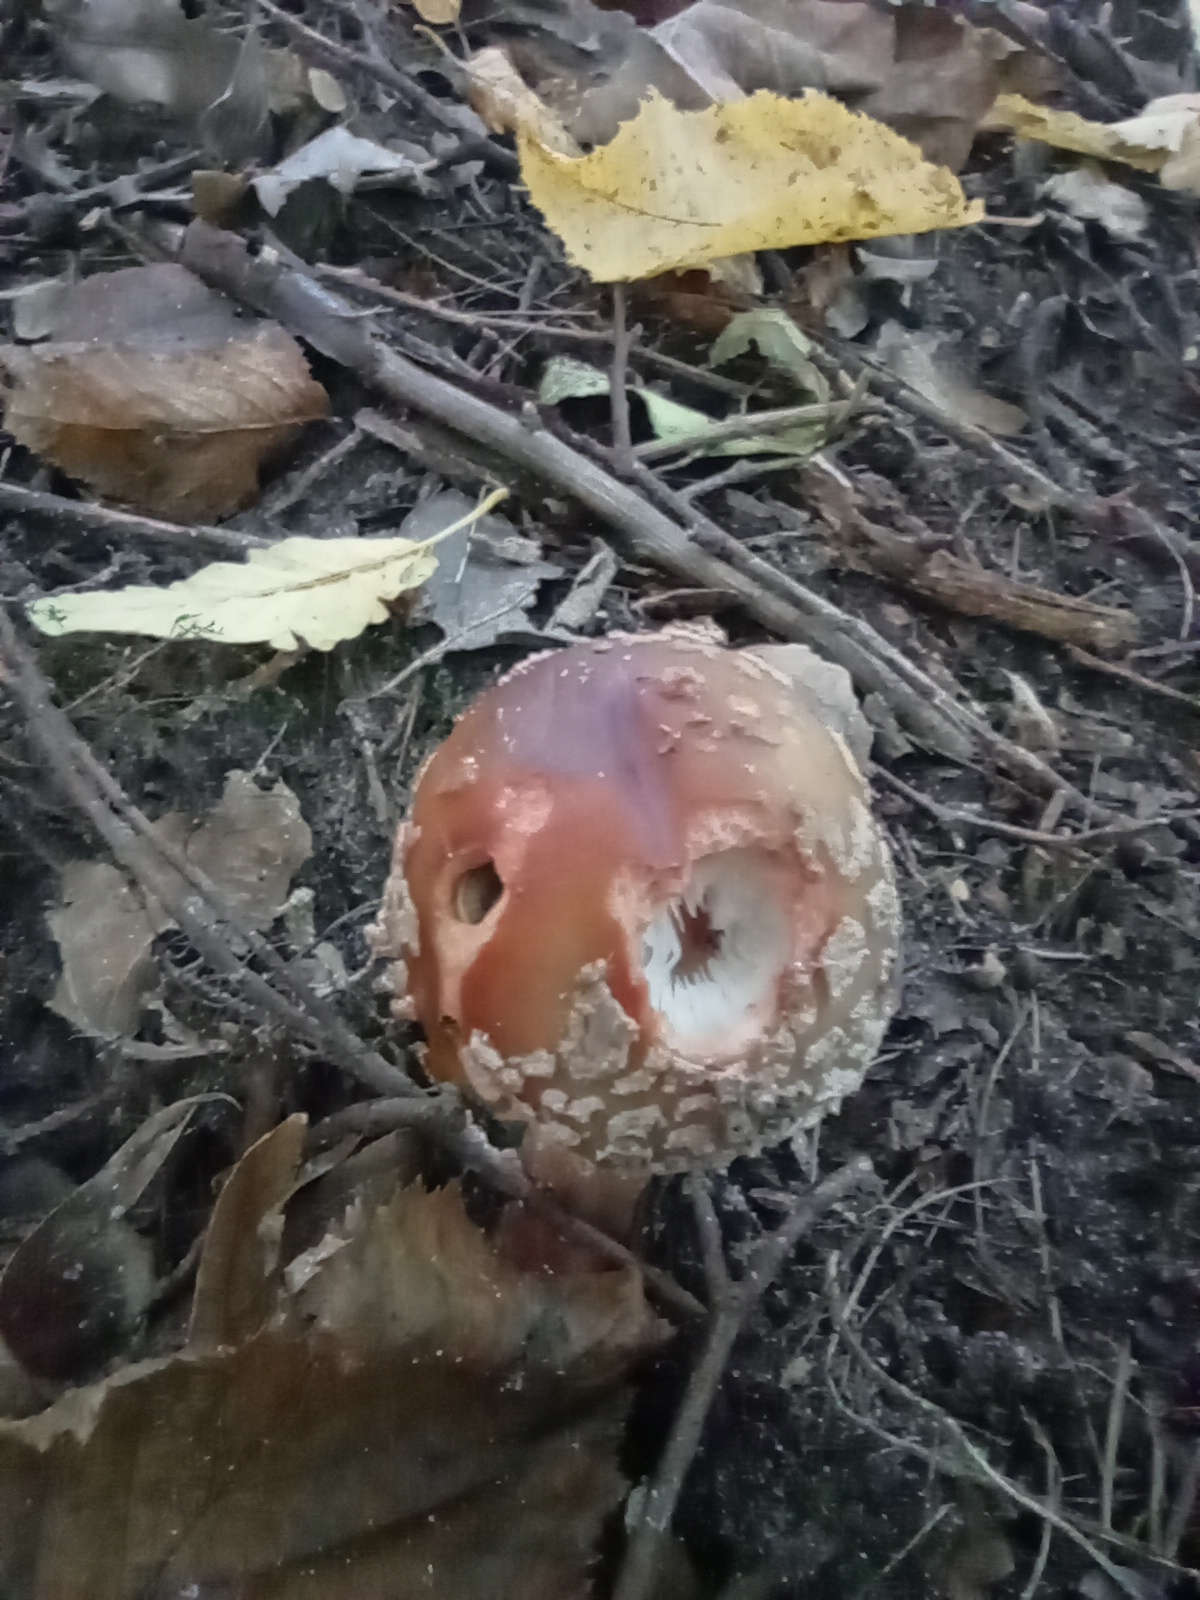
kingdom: Fungi
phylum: Basidiomycota
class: Agaricomycetes
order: Agaricales
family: Amanitaceae
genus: Amanita
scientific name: Amanita rubescens
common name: Blusher
